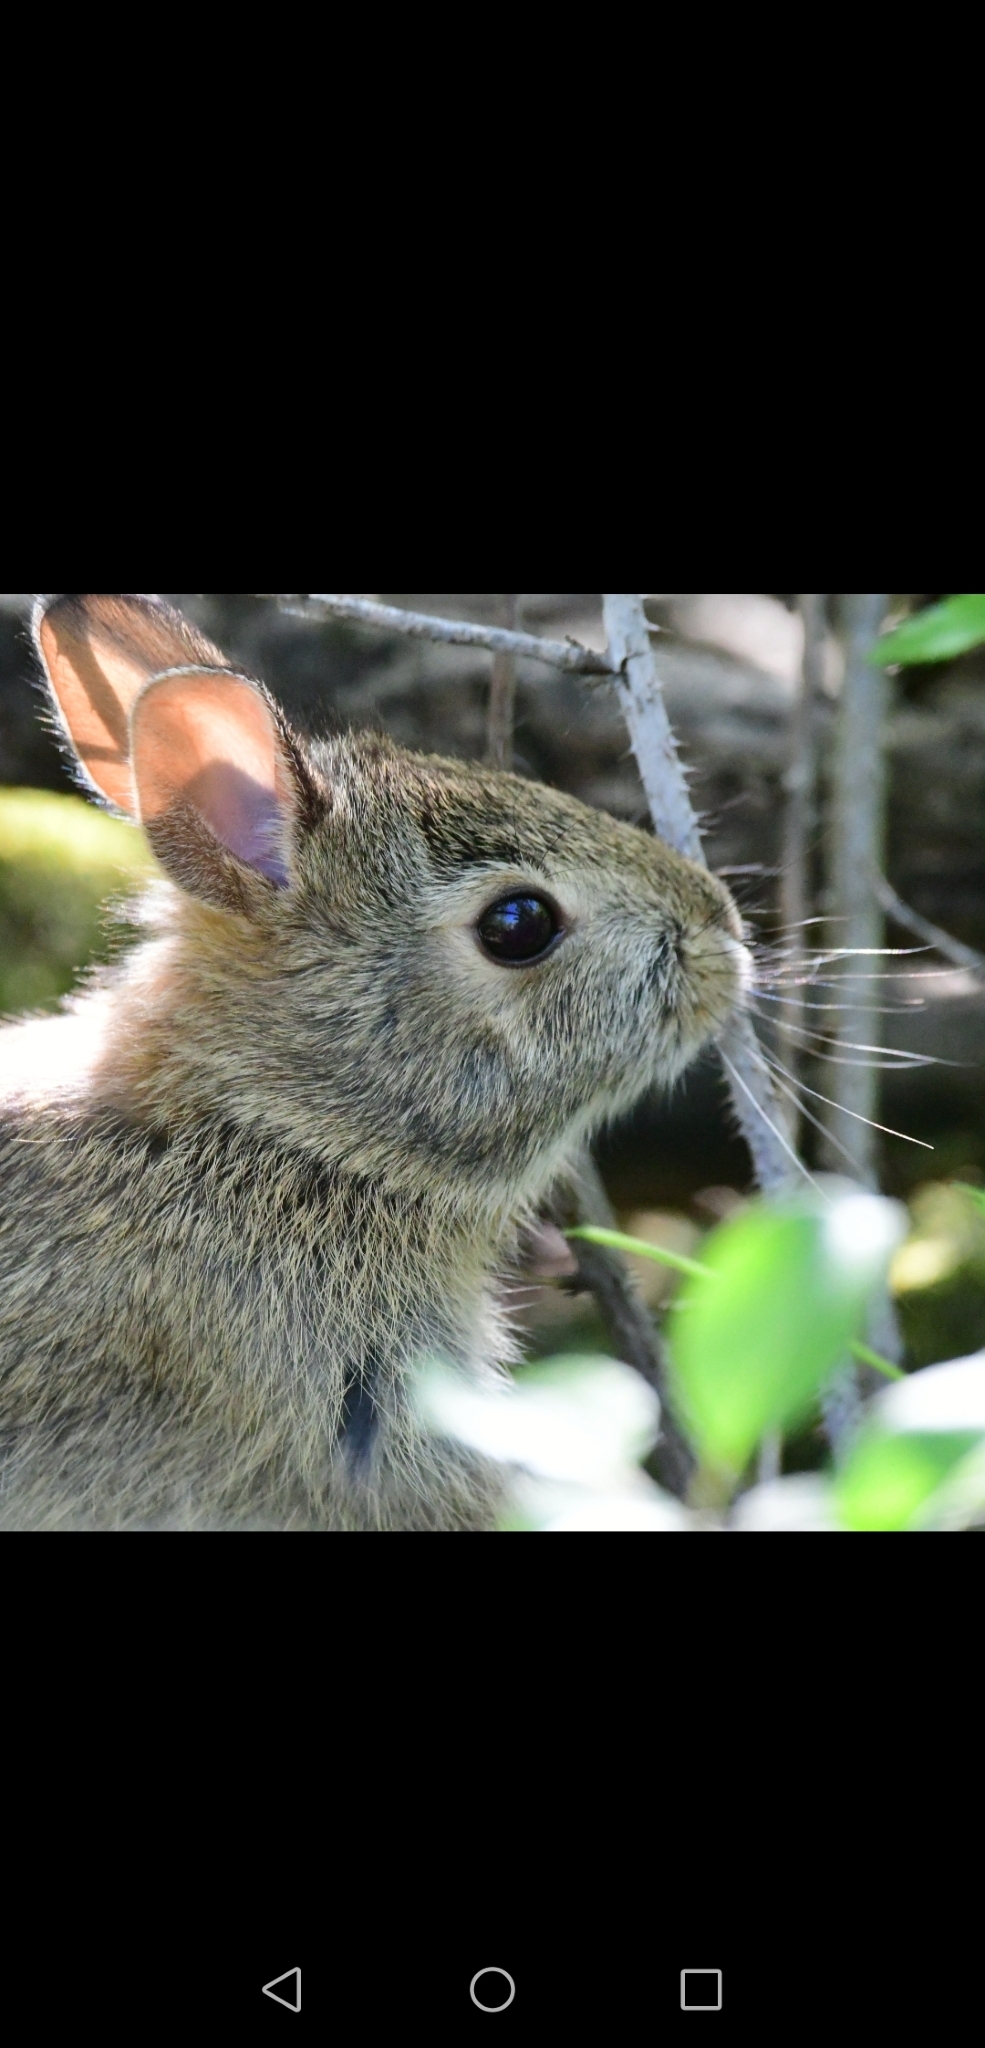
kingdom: Animalia
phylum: Chordata
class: Mammalia
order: Lagomorpha
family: Leporidae
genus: Sylvilagus
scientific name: Sylvilagus floridanus
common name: Eastern cottontail
